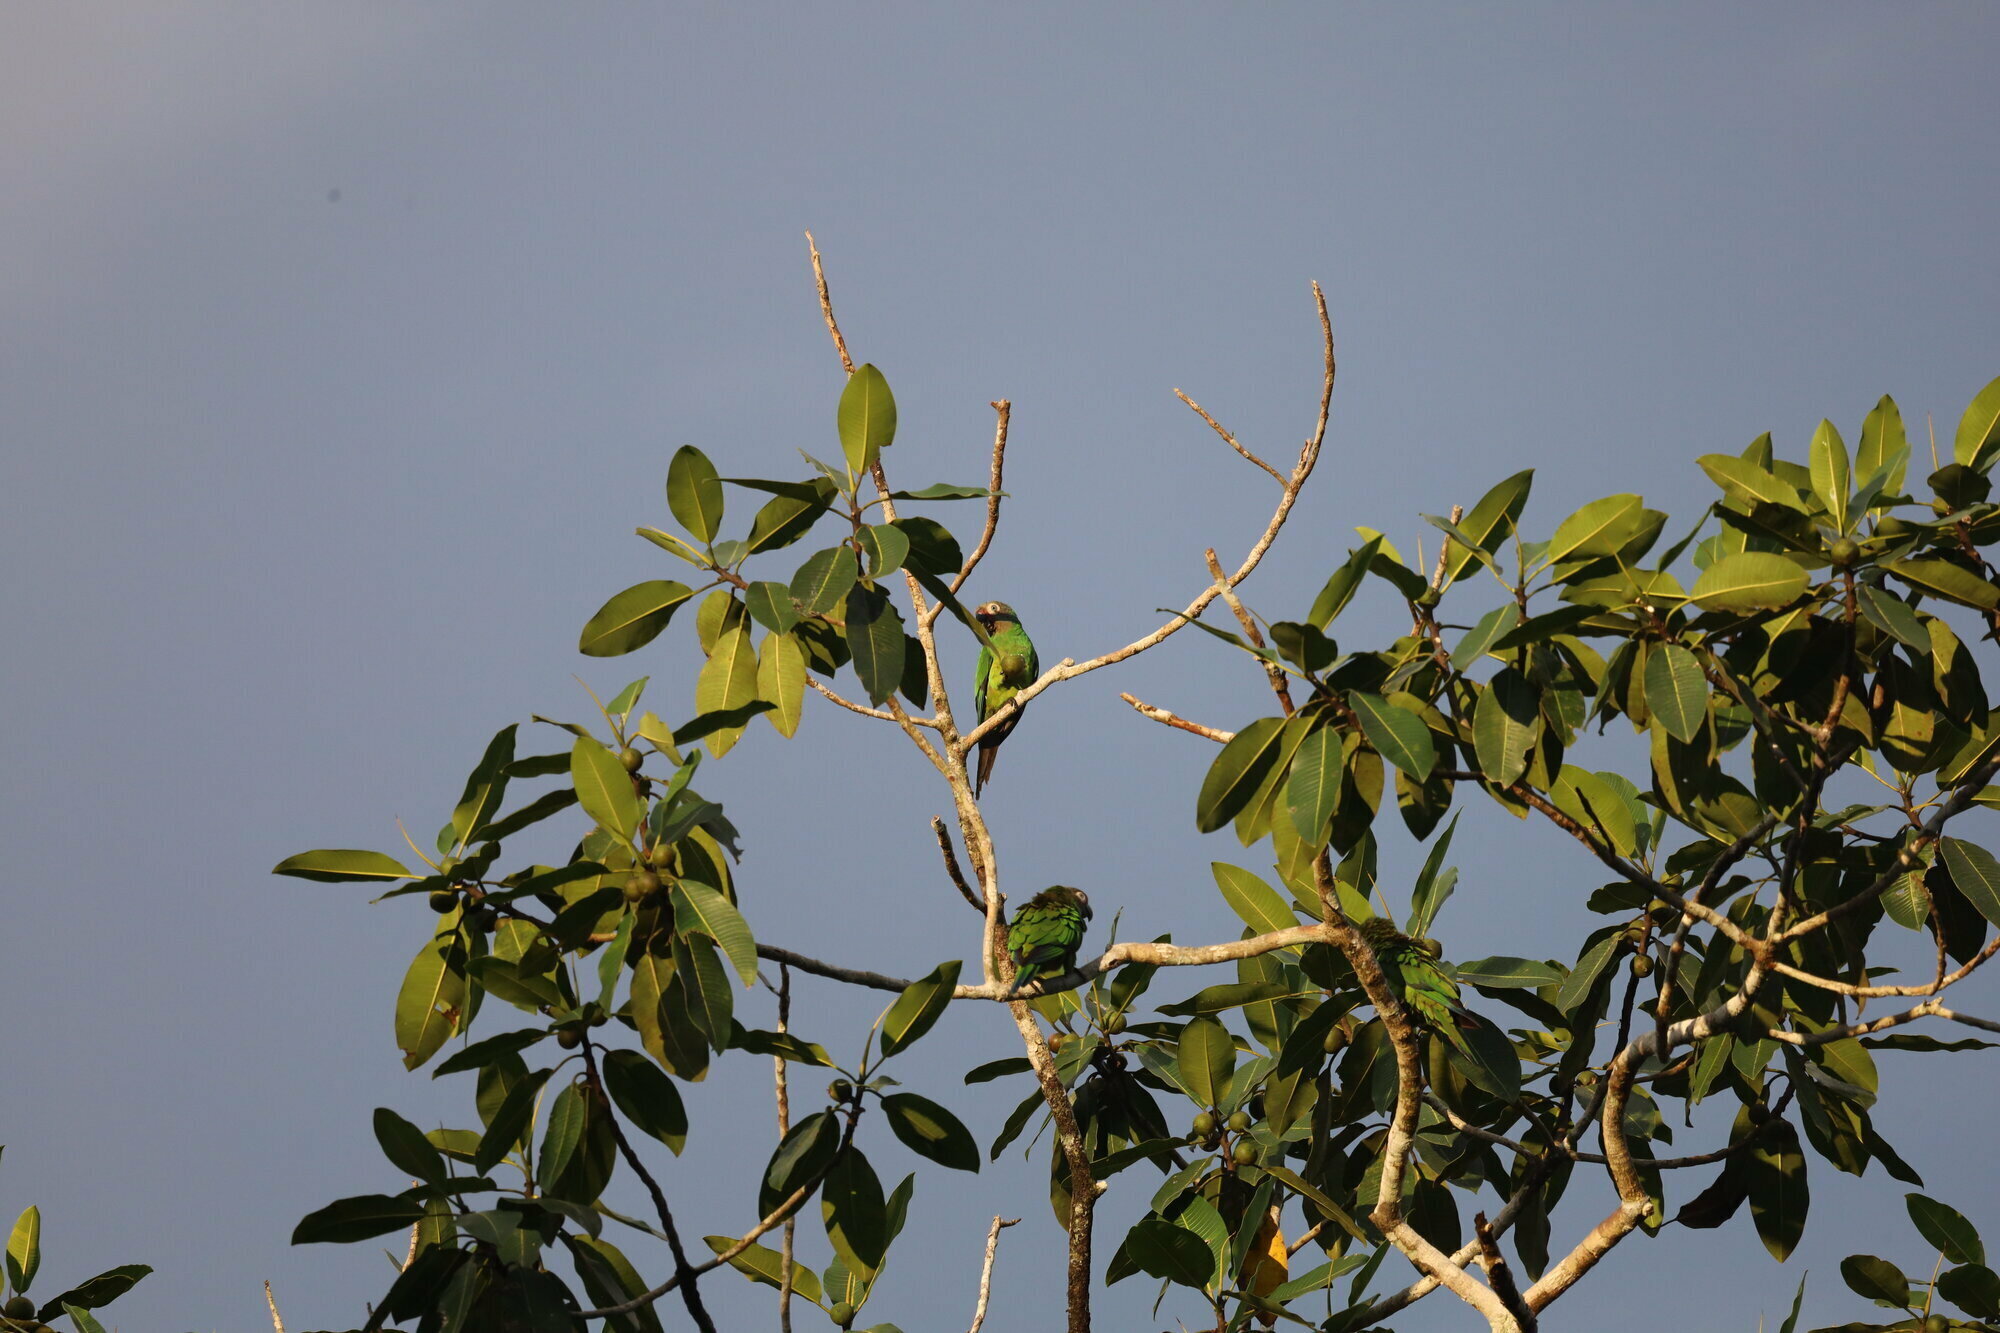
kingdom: Animalia
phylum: Chordata
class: Aves
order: Psittaciformes
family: Psittacidae
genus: Aratinga
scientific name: Aratinga weddellii
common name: Dusky-headed parakeet
